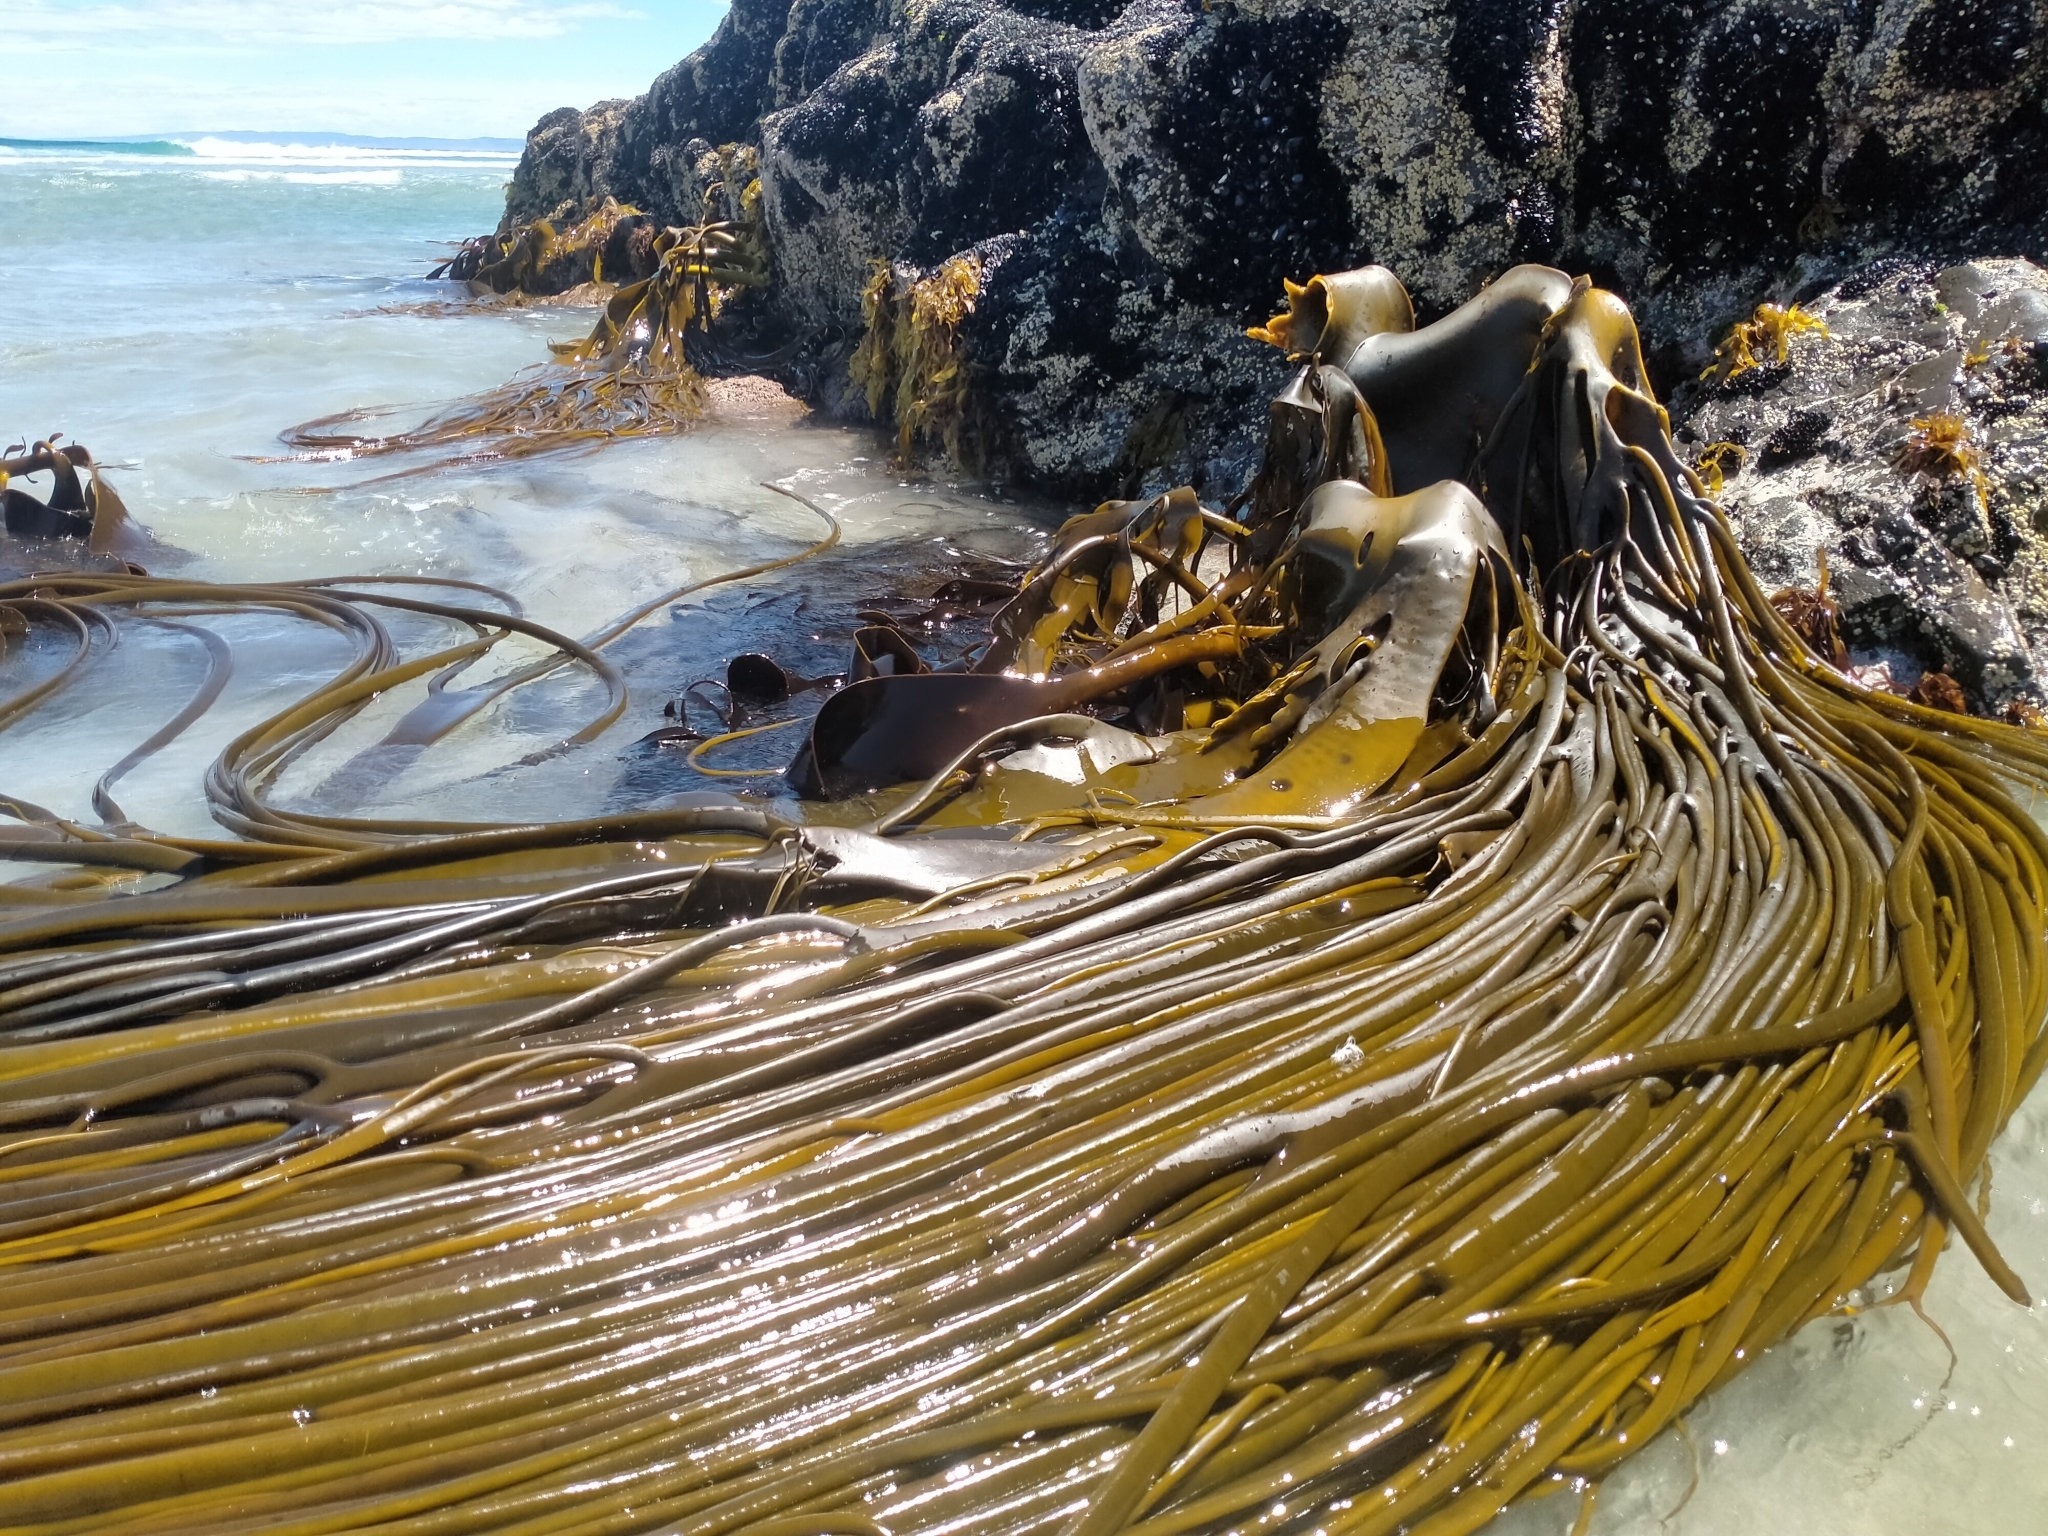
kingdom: Chromista
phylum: Ochrophyta
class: Phaeophyceae
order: Fucales
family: Durvillaeaceae
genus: Durvillaea
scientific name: Durvillaea antarctica
